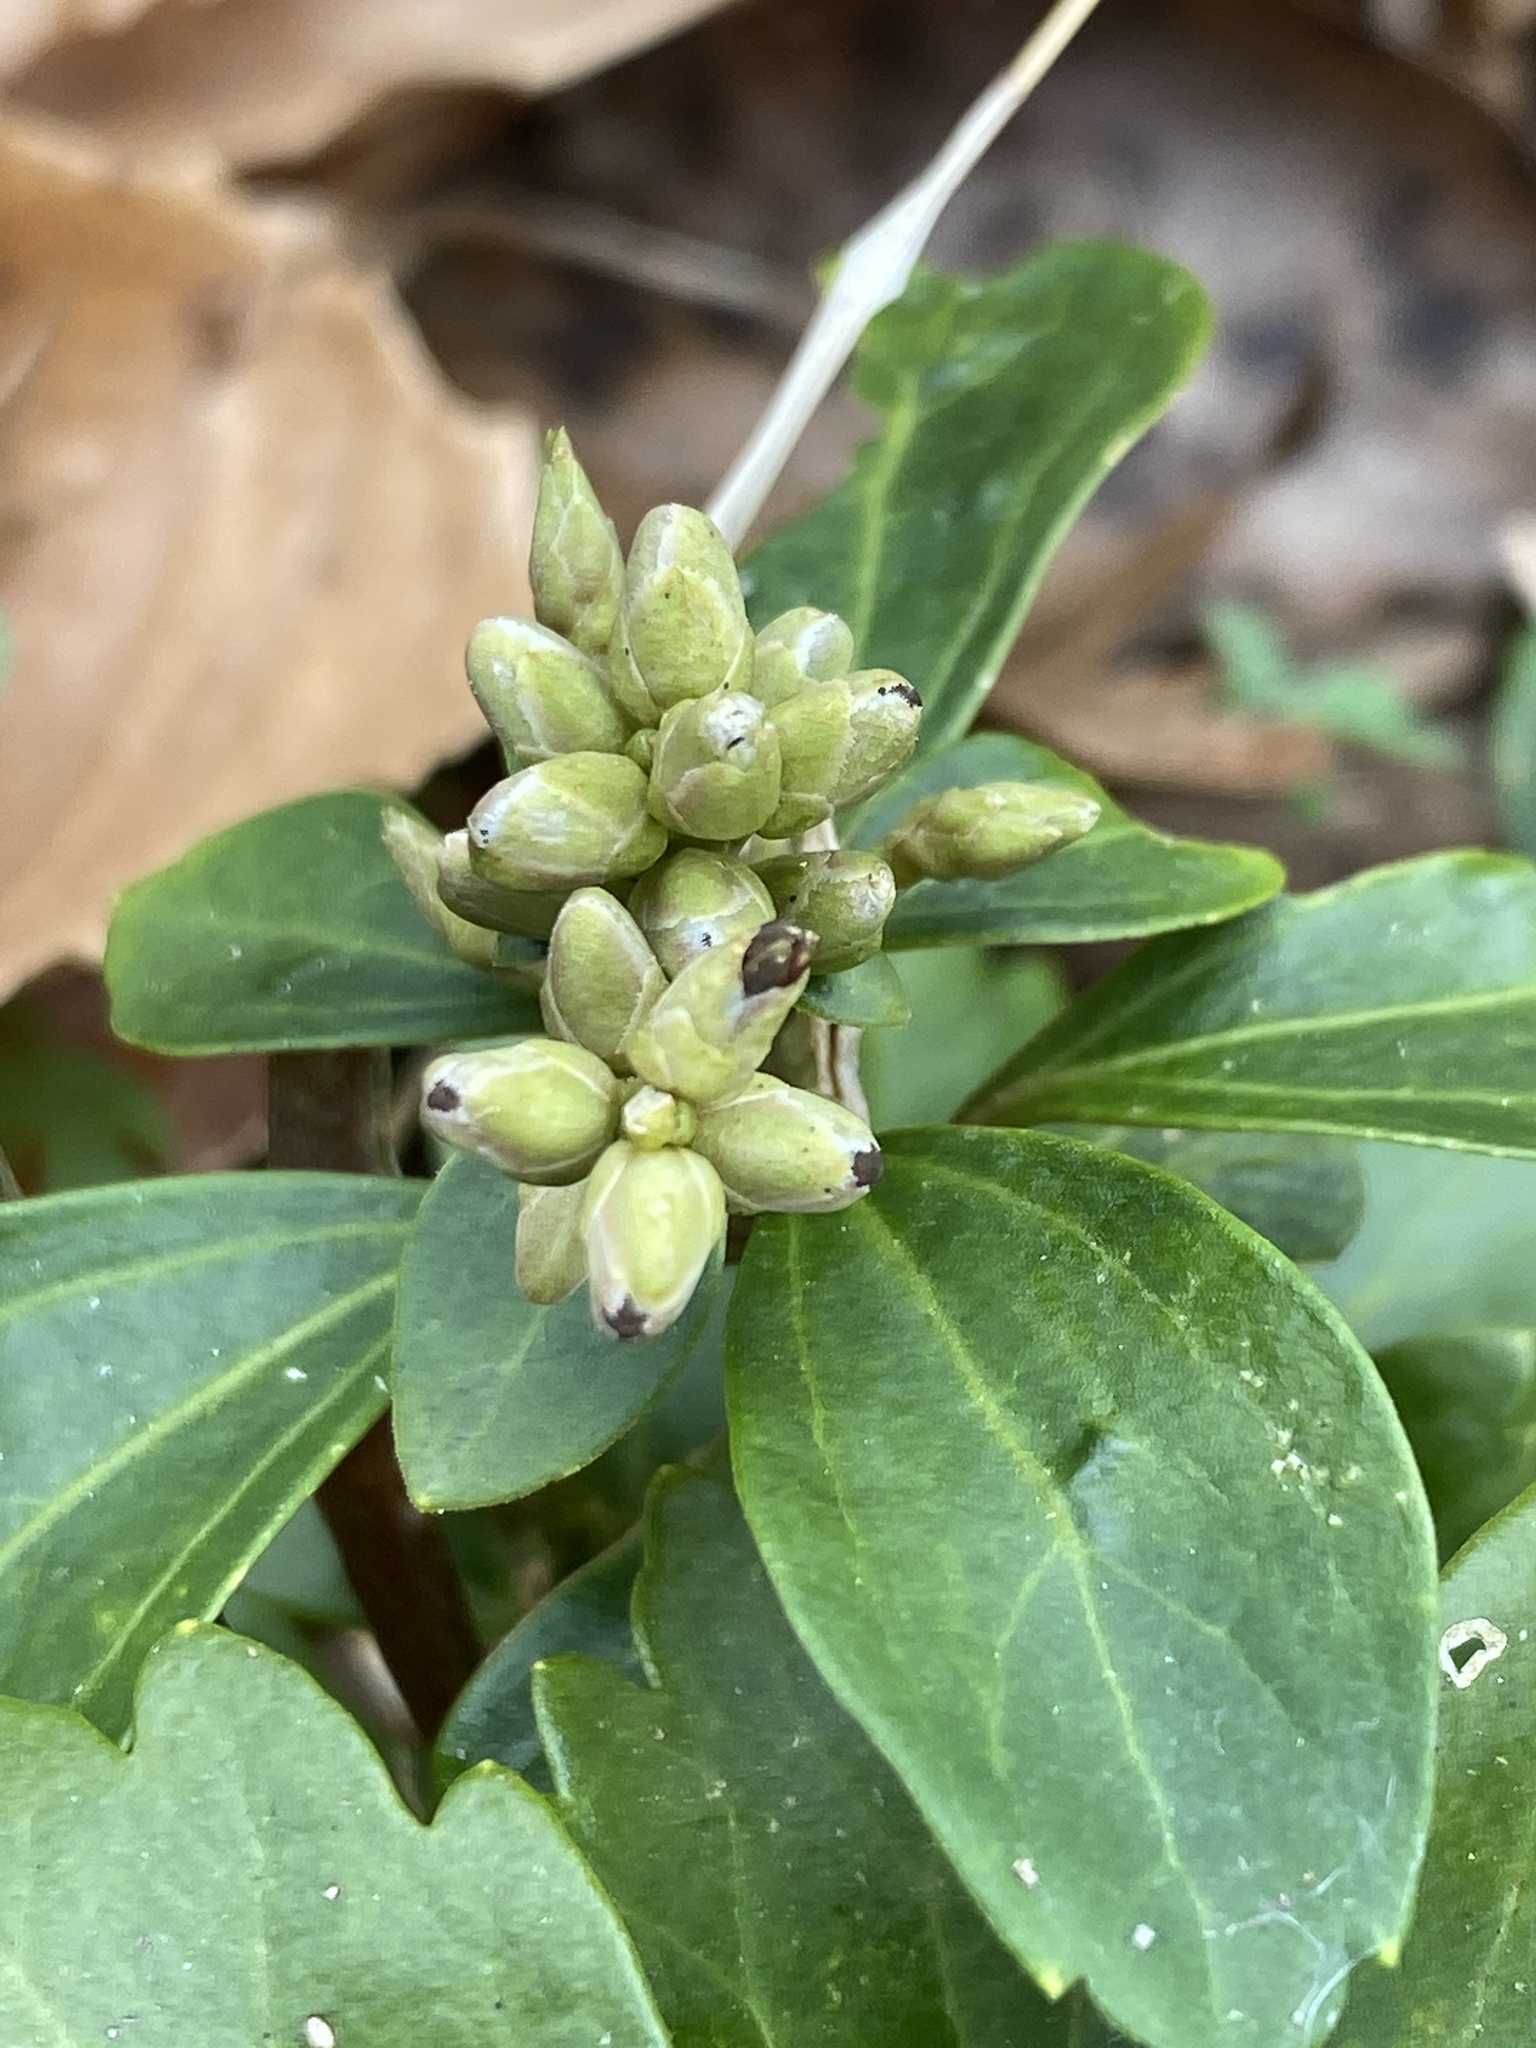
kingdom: Plantae
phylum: Tracheophyta
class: Magnoliopsida
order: Buxales
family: Buxaceae
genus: Pachysandra
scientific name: Pachysandra terminalis
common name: Japanese pachysandra
